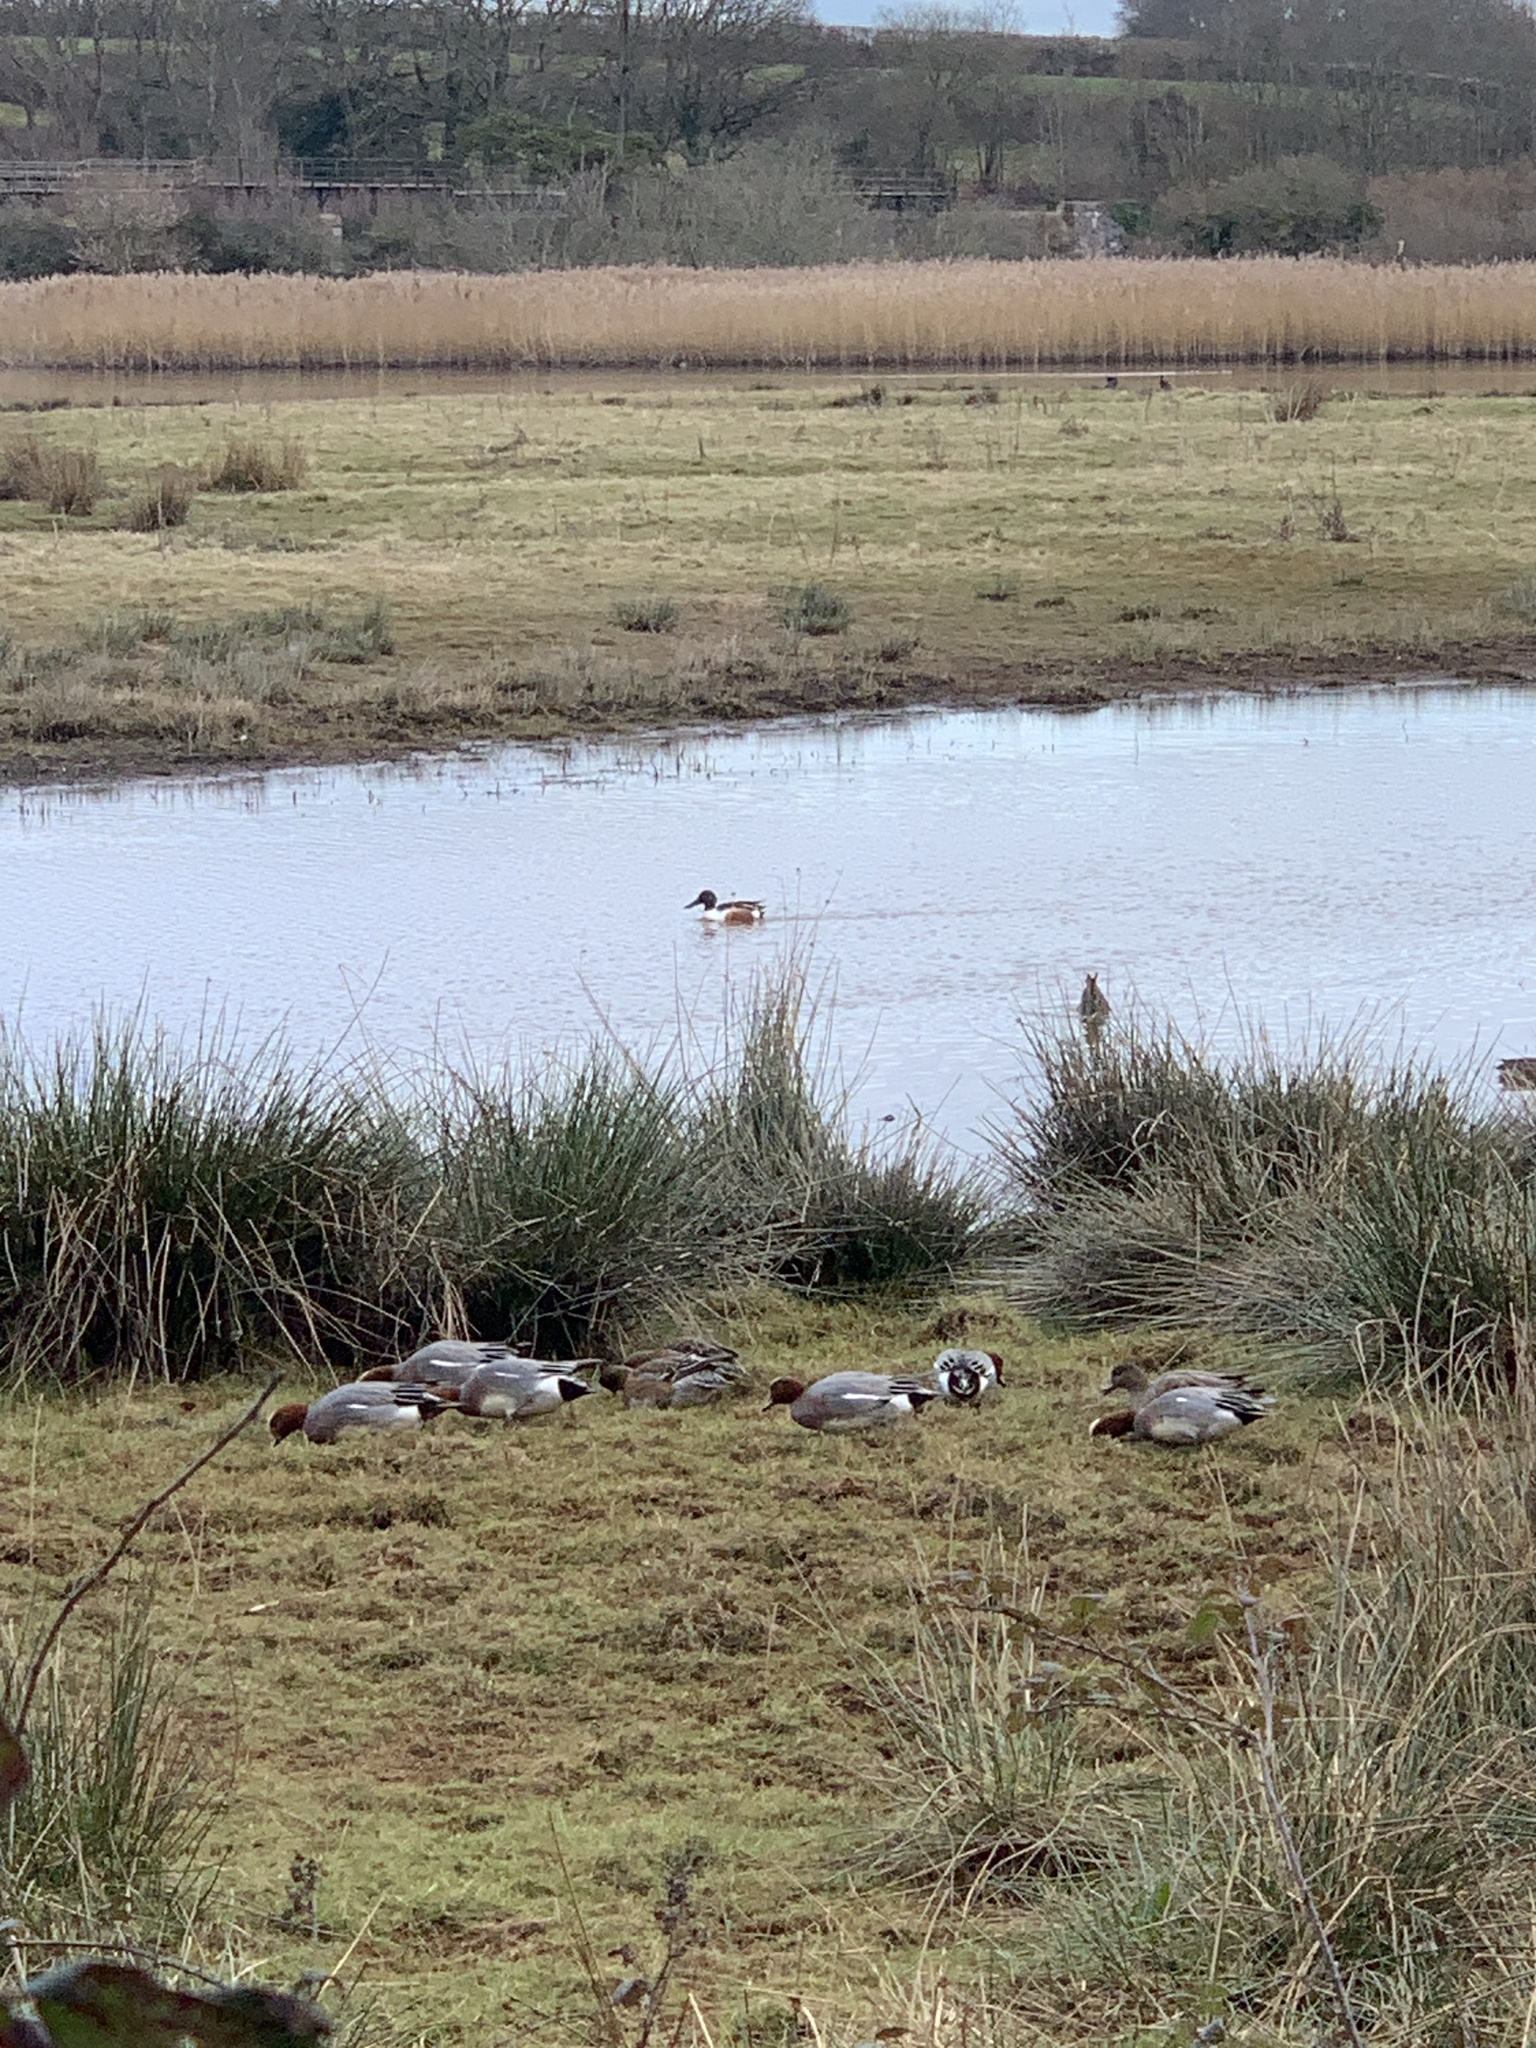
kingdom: Animalia
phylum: Chordata
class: Aves
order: Anseriformes
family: Anatidae
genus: Mareca
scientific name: Mareca penelope
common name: Eurasian wigeon
